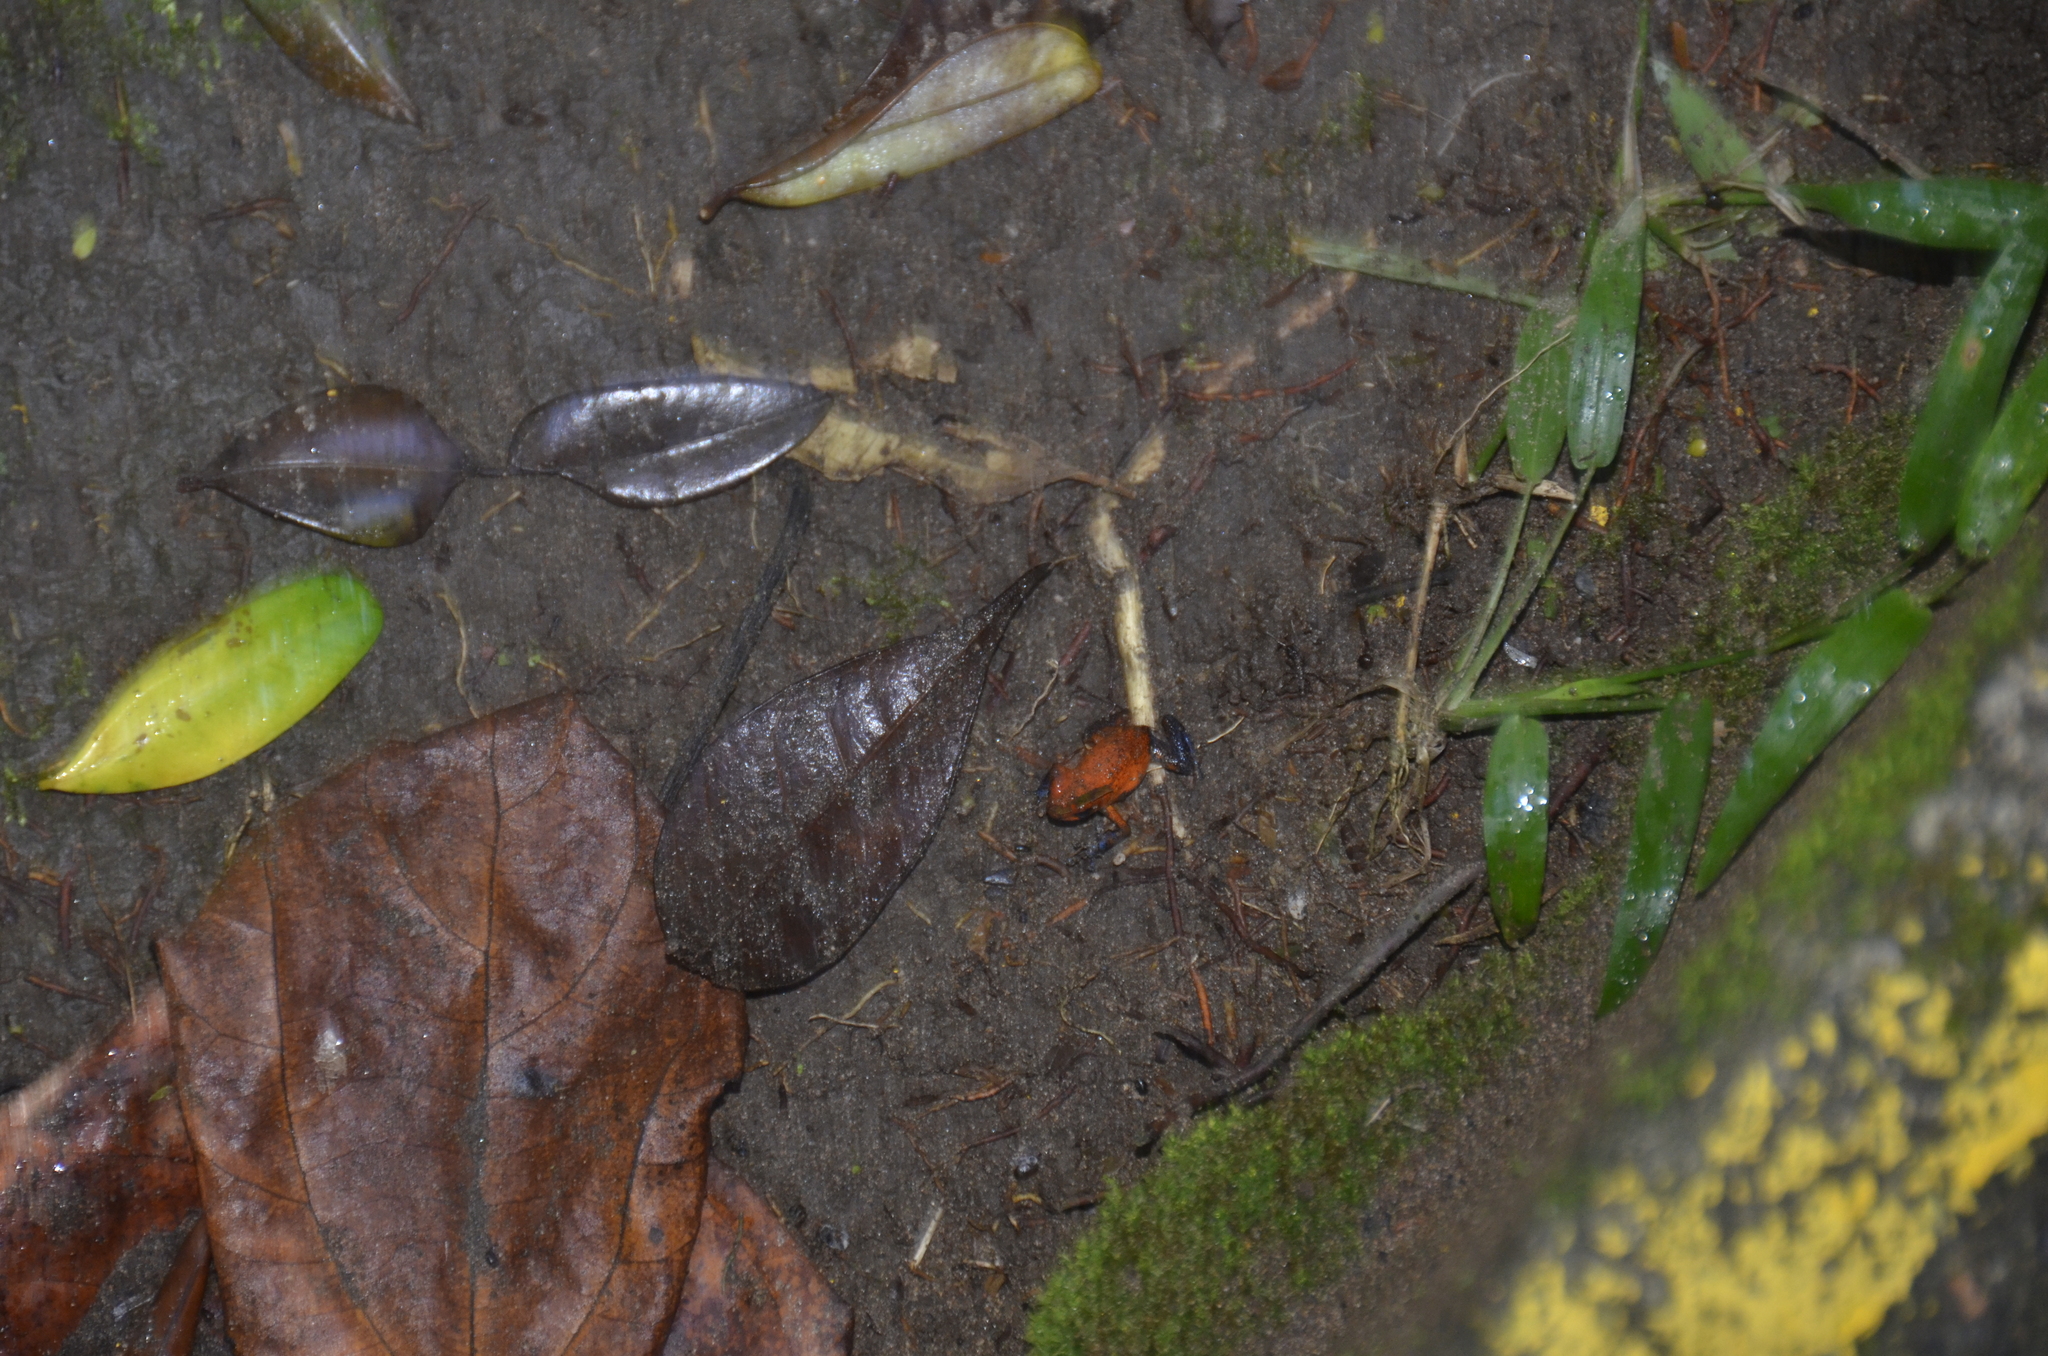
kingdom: Animalia
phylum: Chordata
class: Amphibia
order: Anura
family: Dendrobatidae
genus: Oophaga
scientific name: Oophaga pumilio
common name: Flaming poison frog
